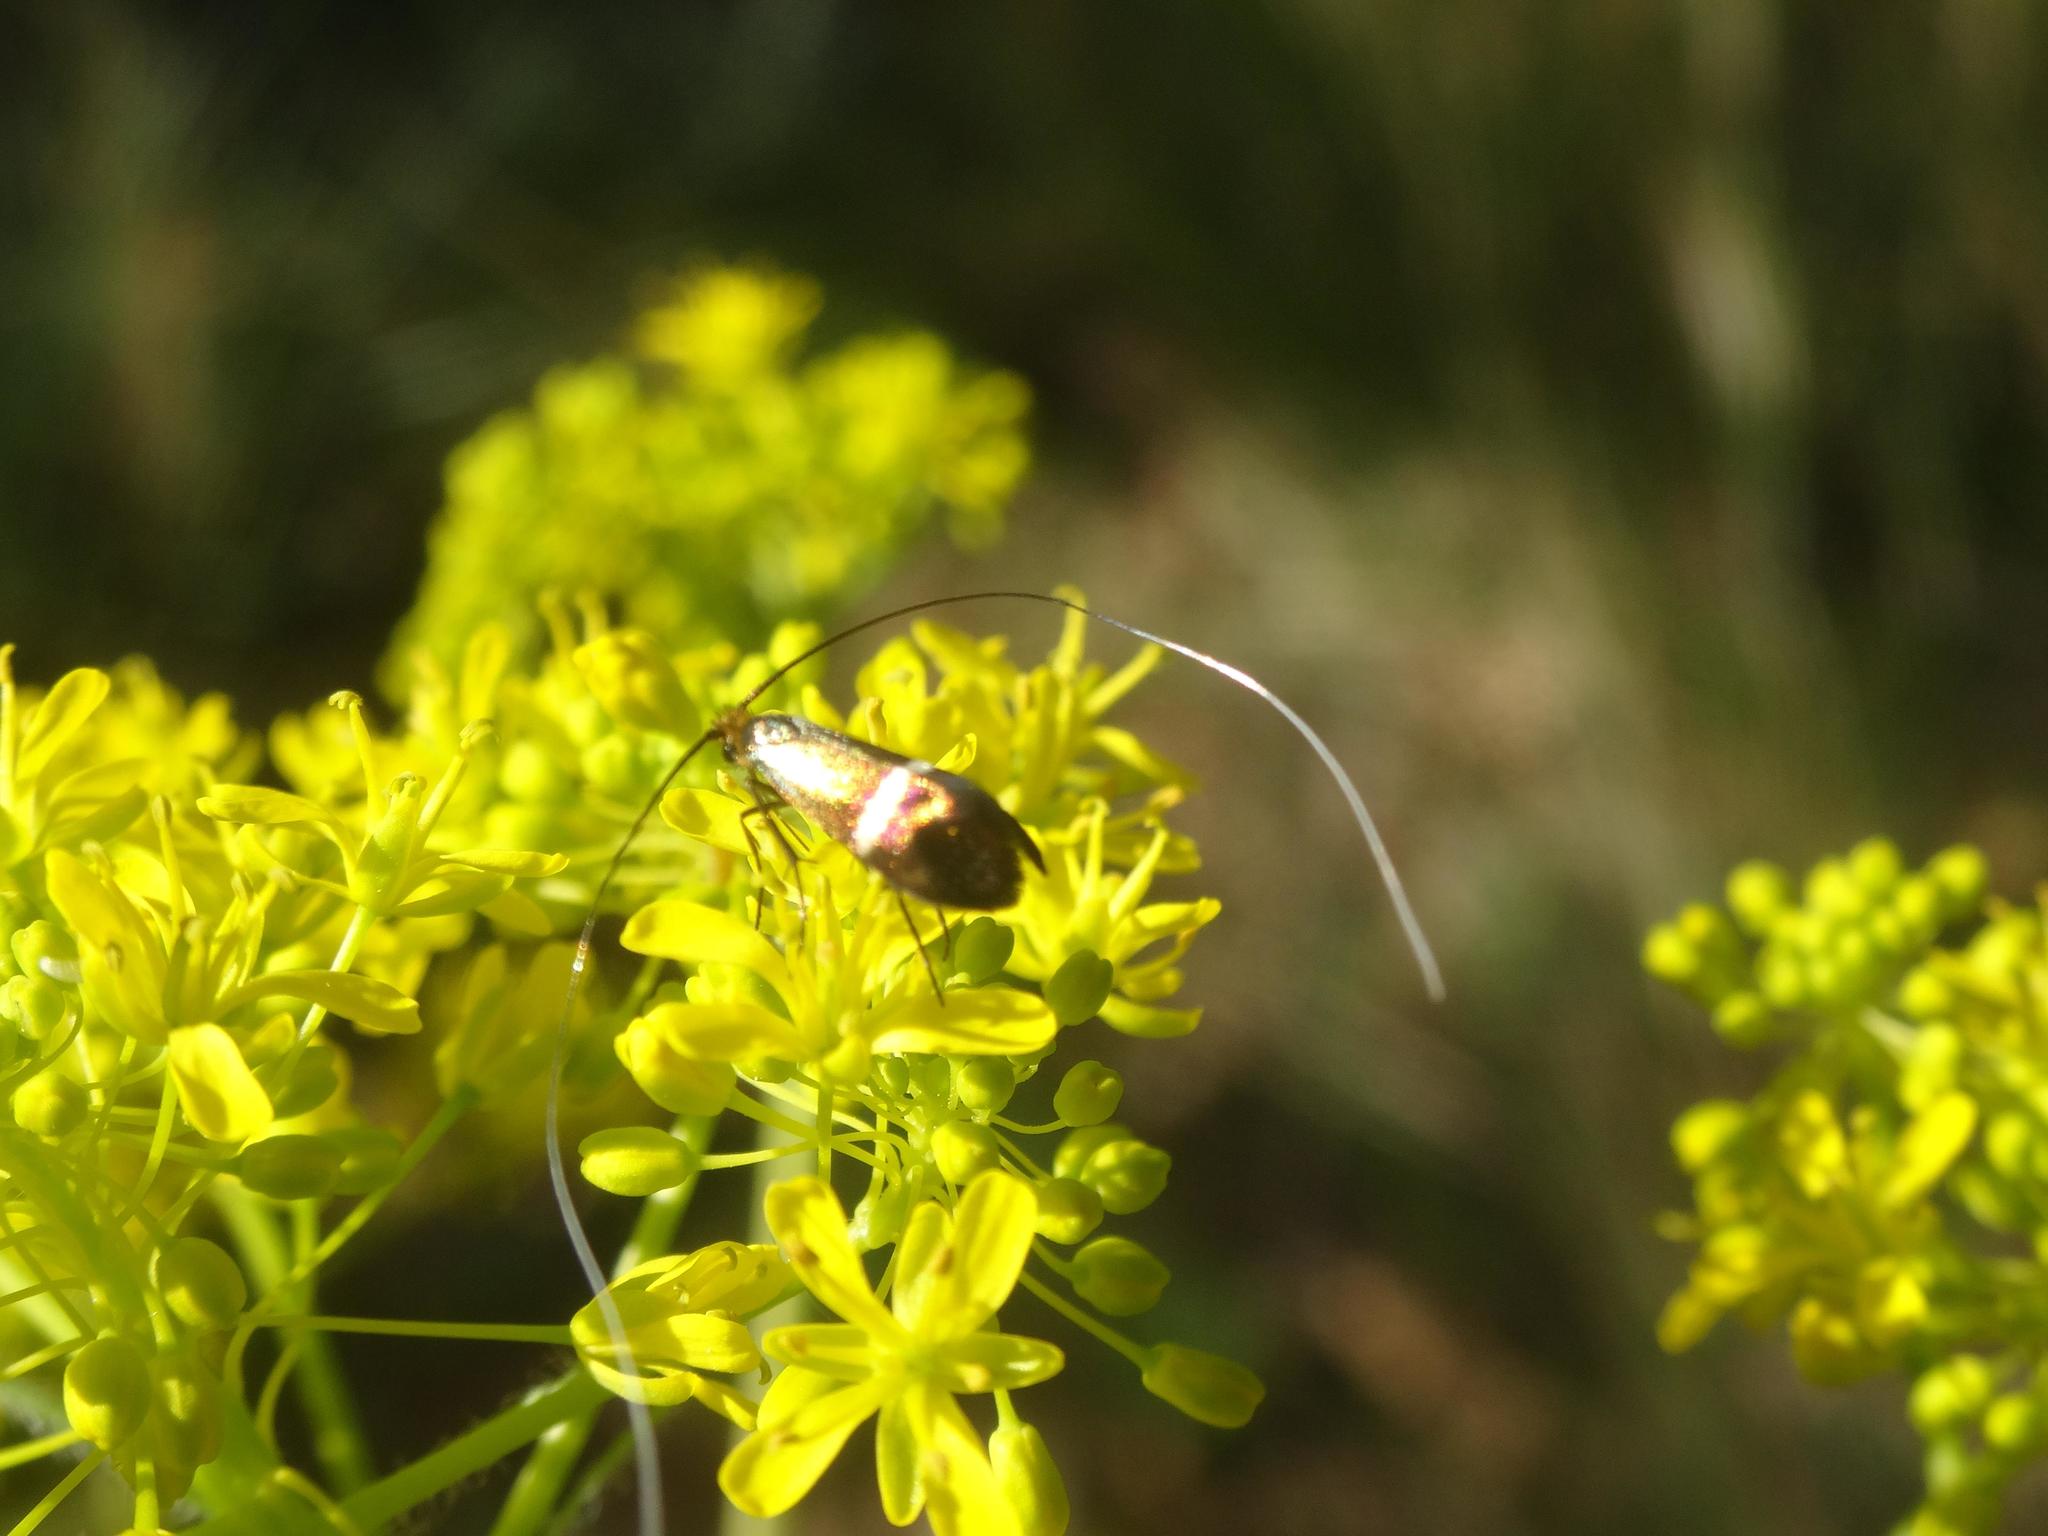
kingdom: Animalia
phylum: Arthropoda
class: Insecta
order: Lepidoptera
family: Adelidae
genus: Adela
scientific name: Adela australis
